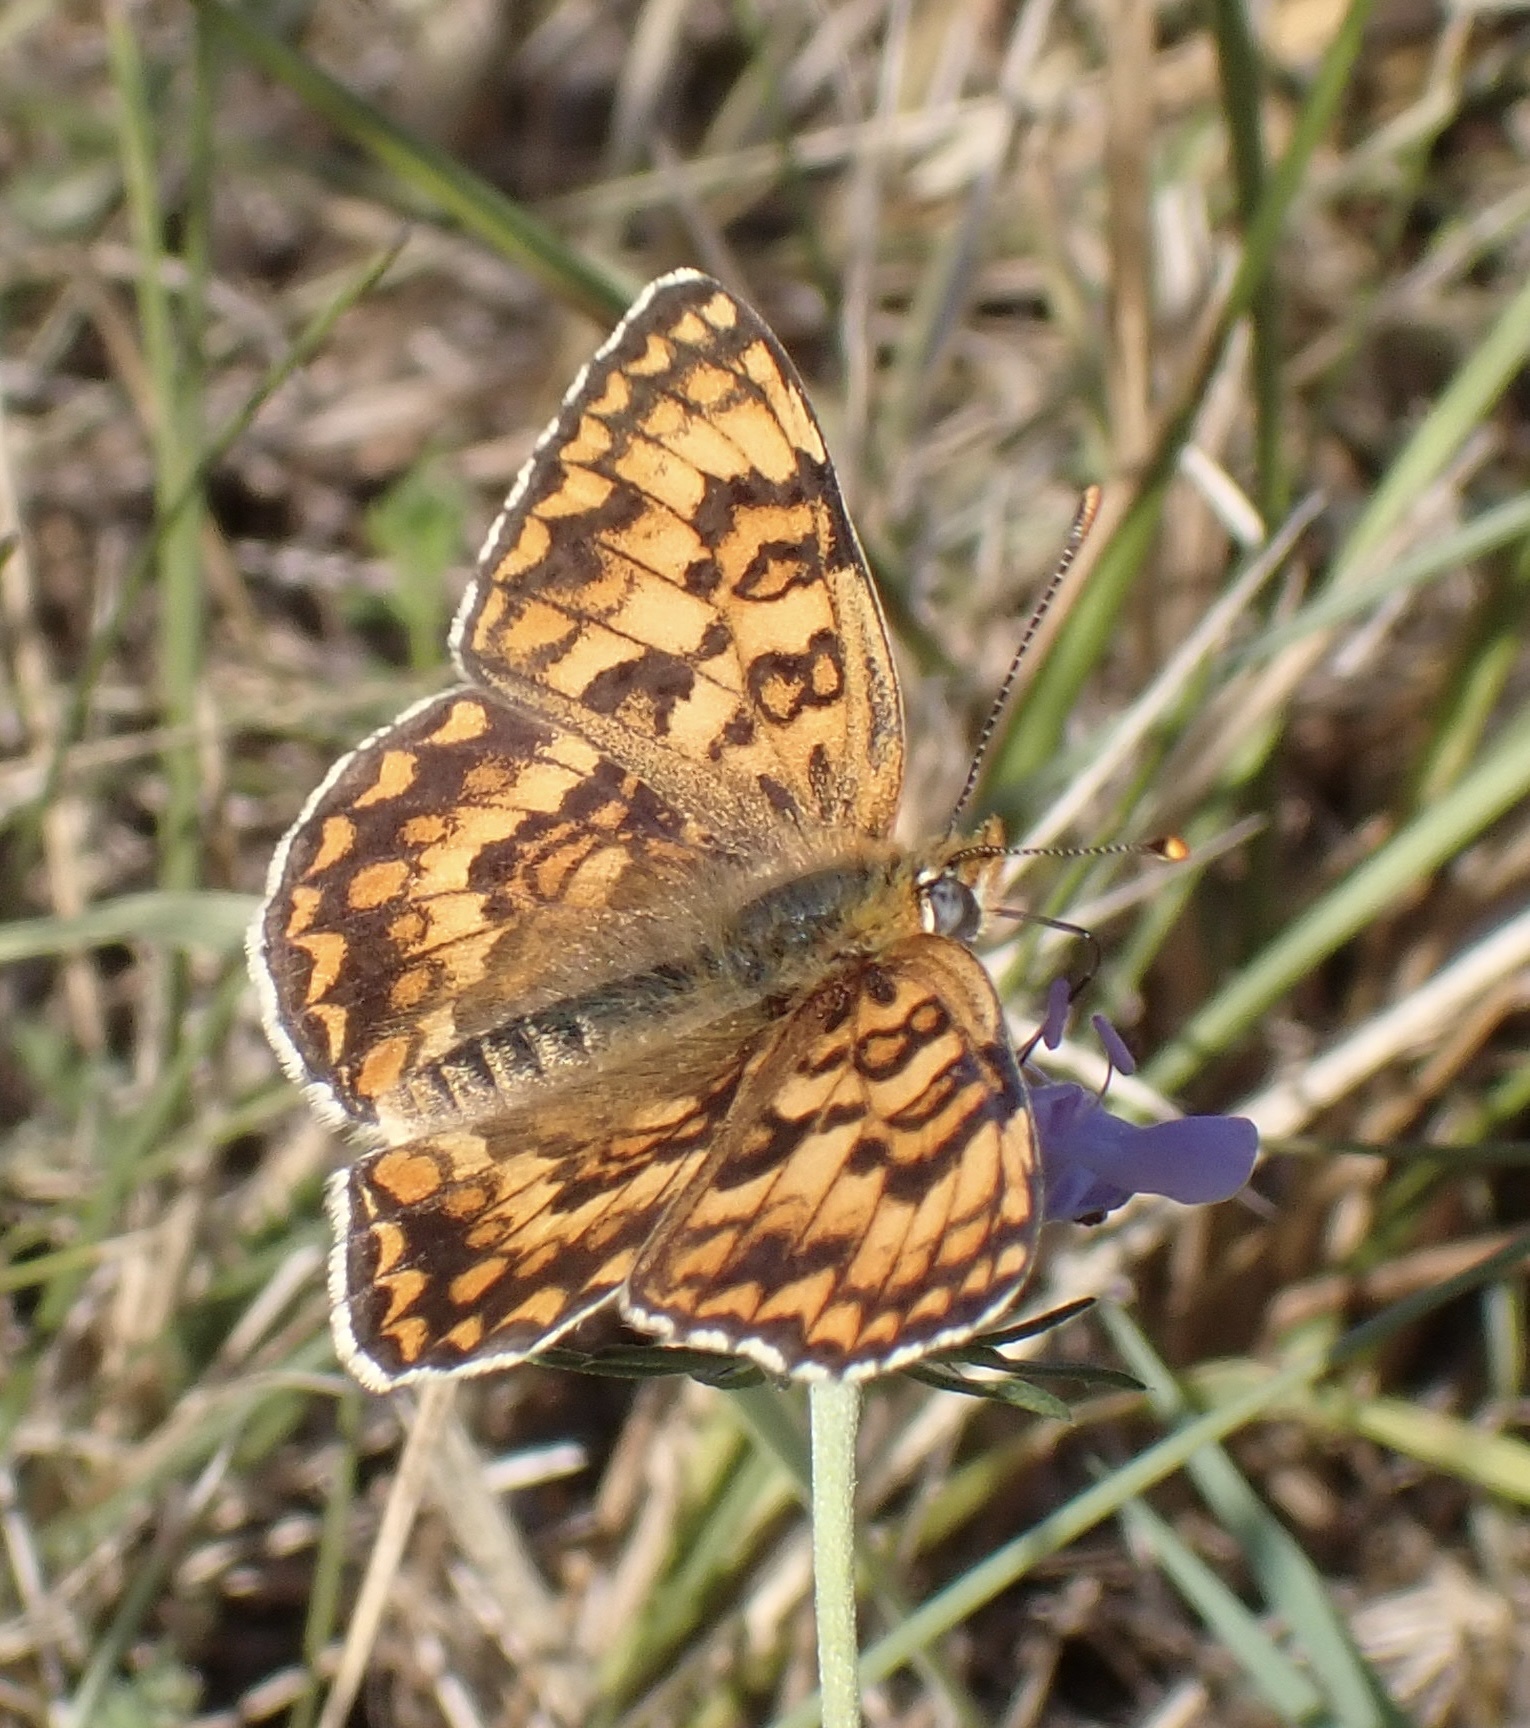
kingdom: Animalia
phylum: Arthropoda
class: Insecta
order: Lepidoptera
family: Nymphalidae
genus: Melitaea
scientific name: Melitaea phoebe
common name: Knapweed fritillary
